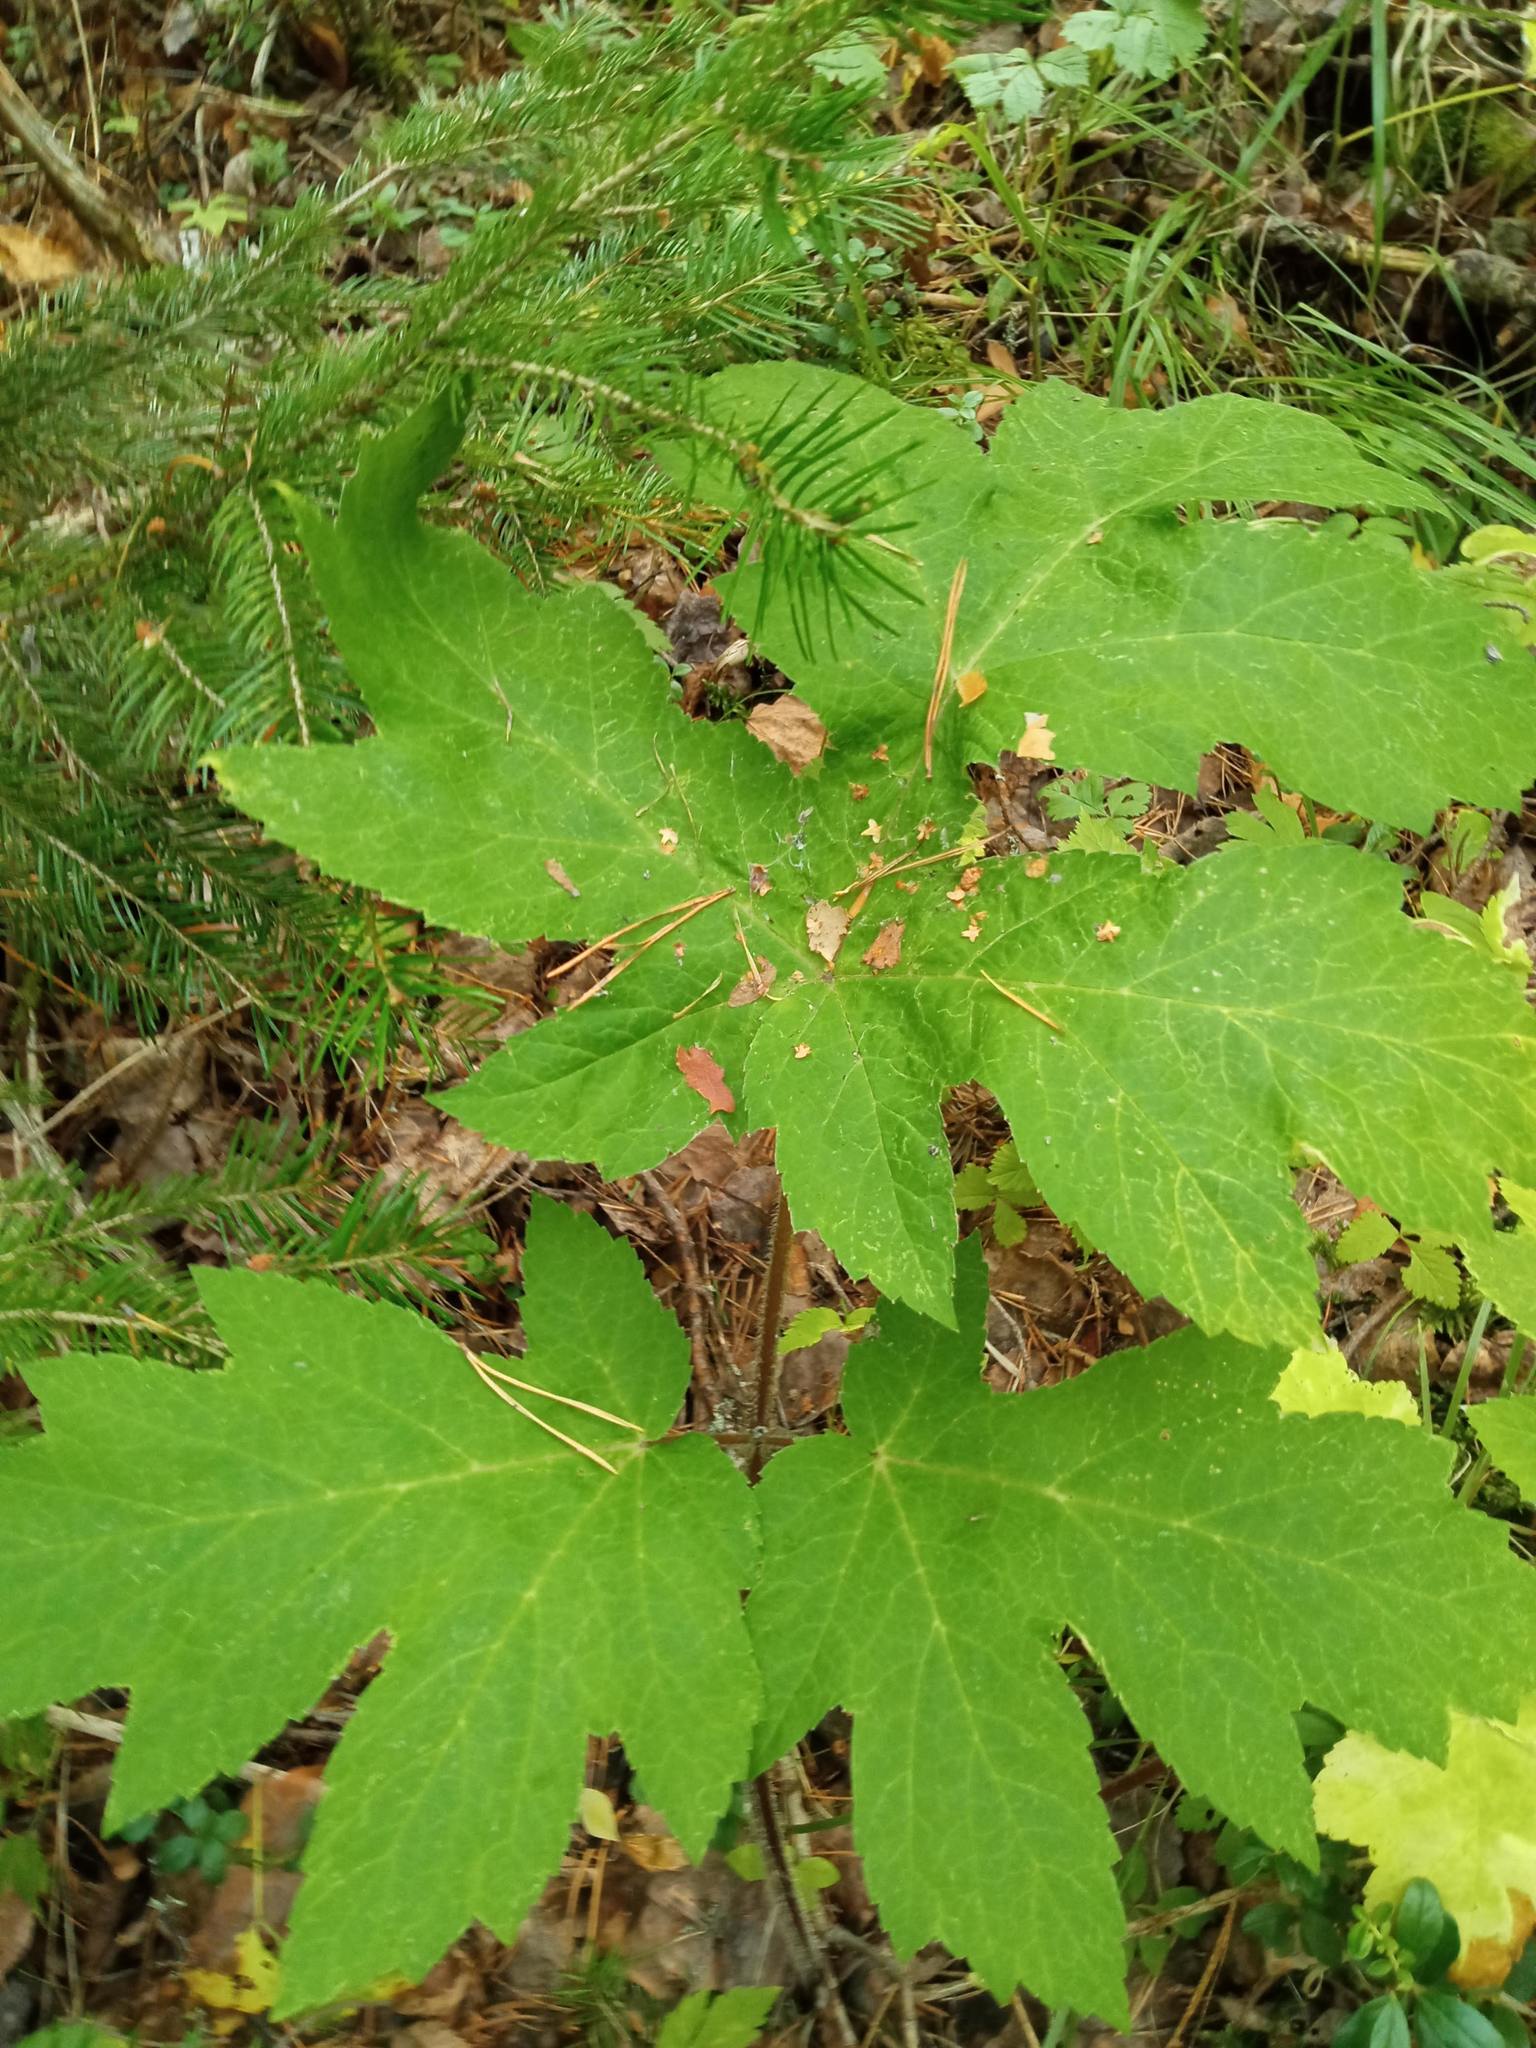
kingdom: Plantae
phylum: Tracheophyta
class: Magnoliopsida
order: Apiales
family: Apiaceae
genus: Heracleum
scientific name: Heracleum dissectum
